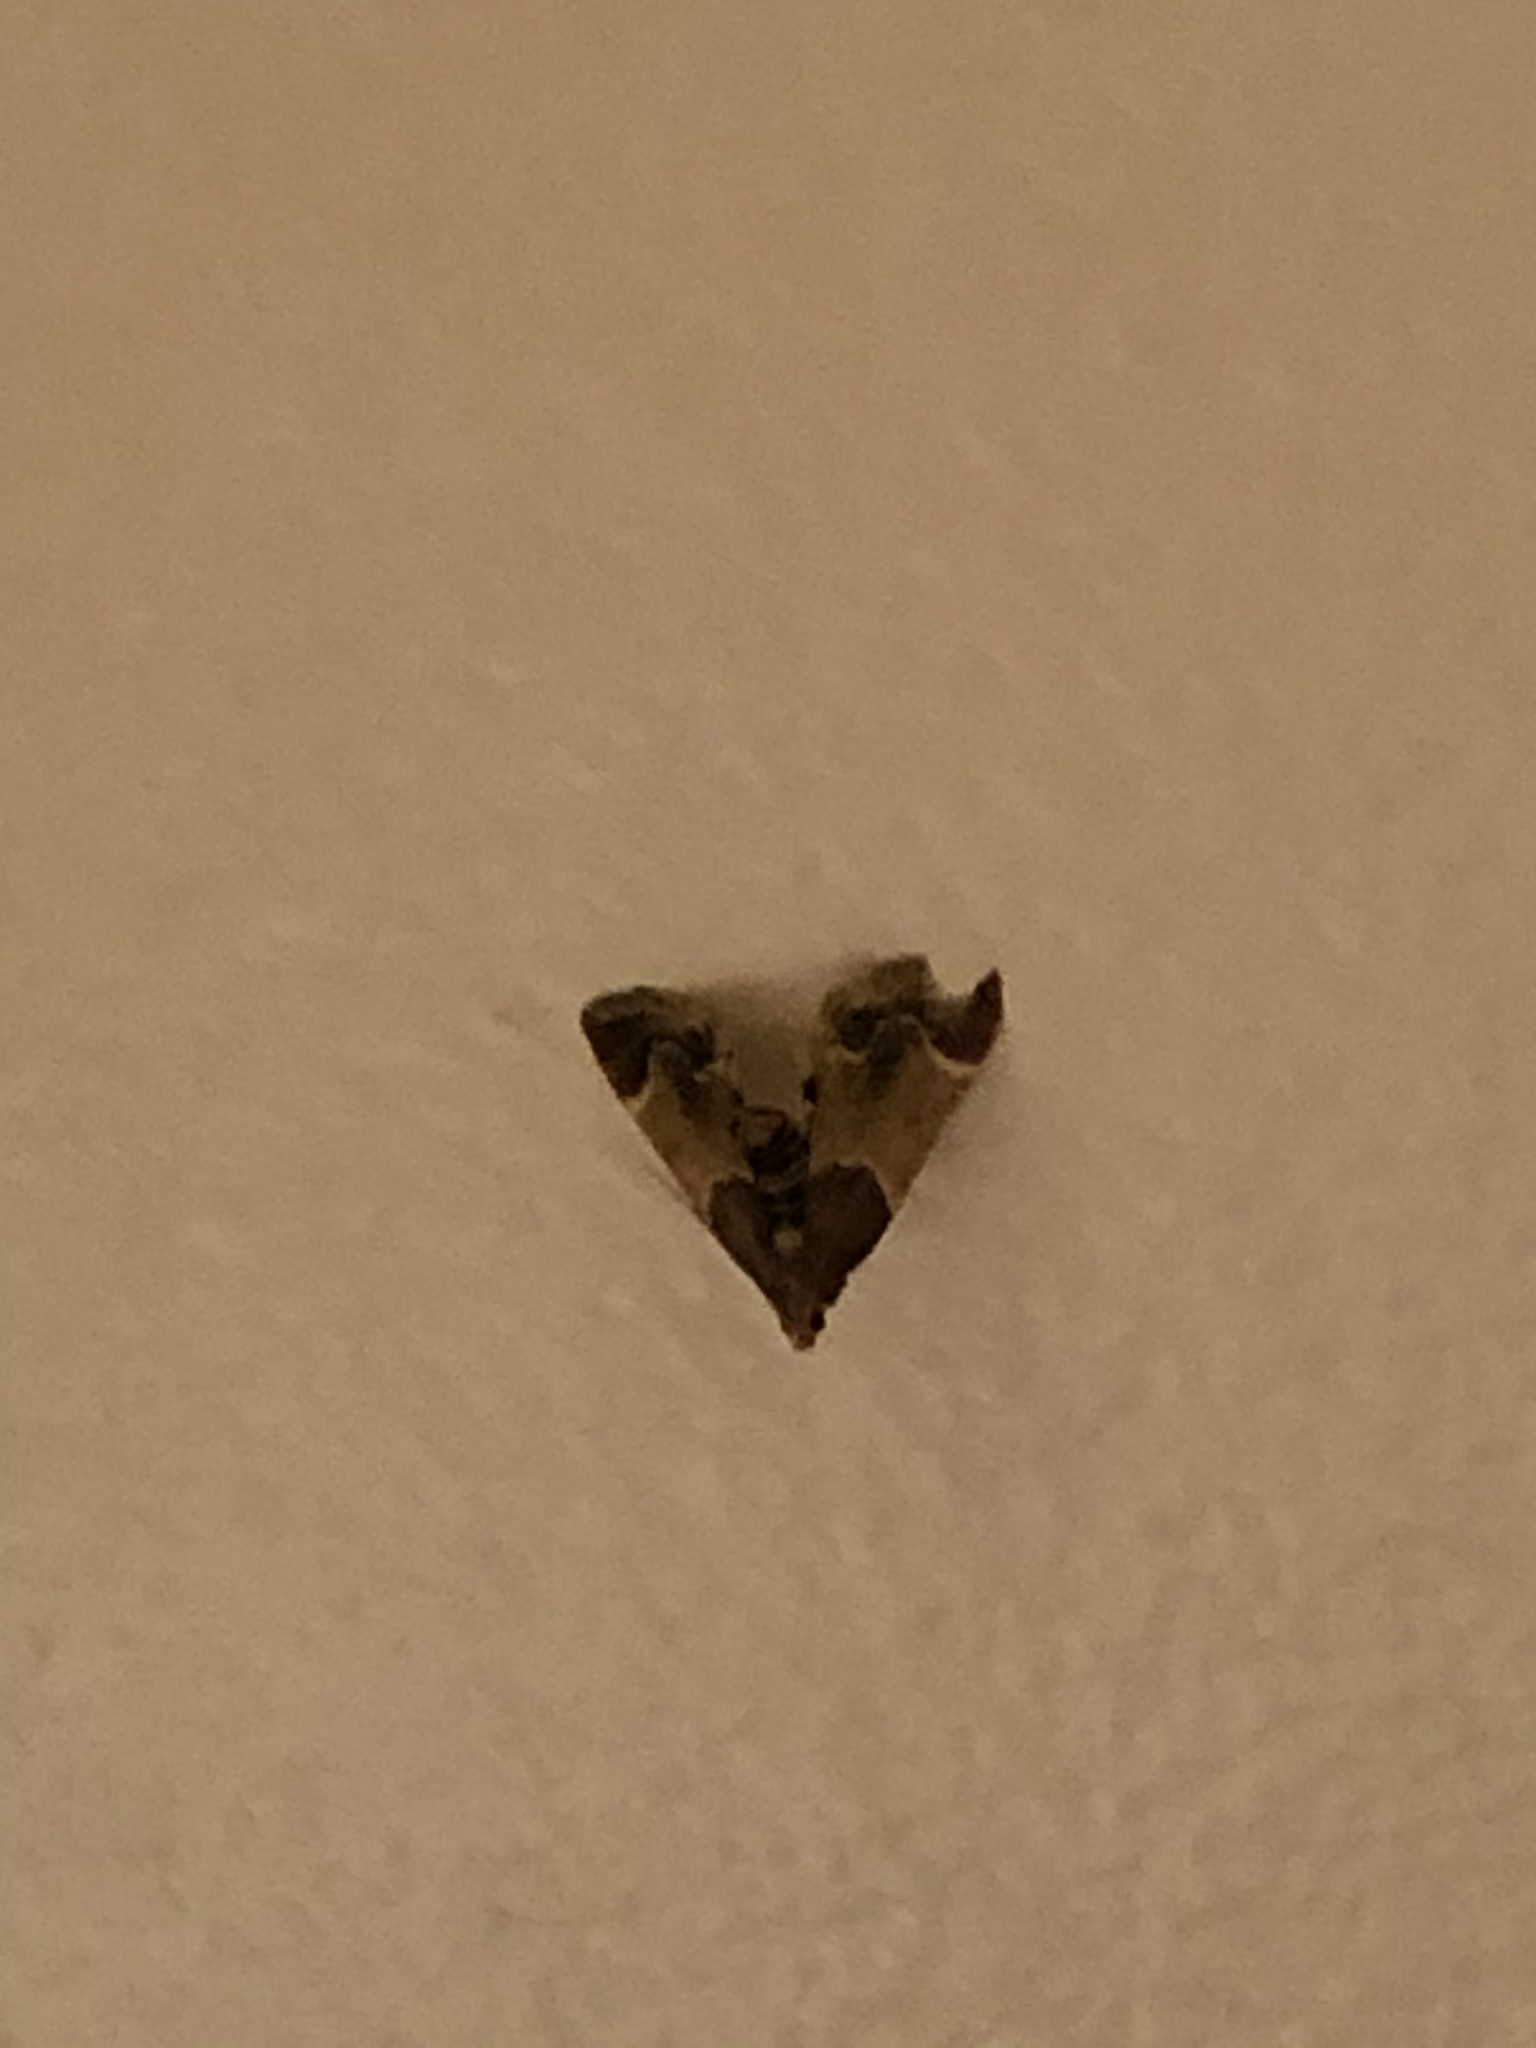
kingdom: Animalia
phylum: Arthropoda
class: Insecta
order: Lepidoptera
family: Pyralidae
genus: Pyralis
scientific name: Pyralis farinalis
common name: Meal moth
